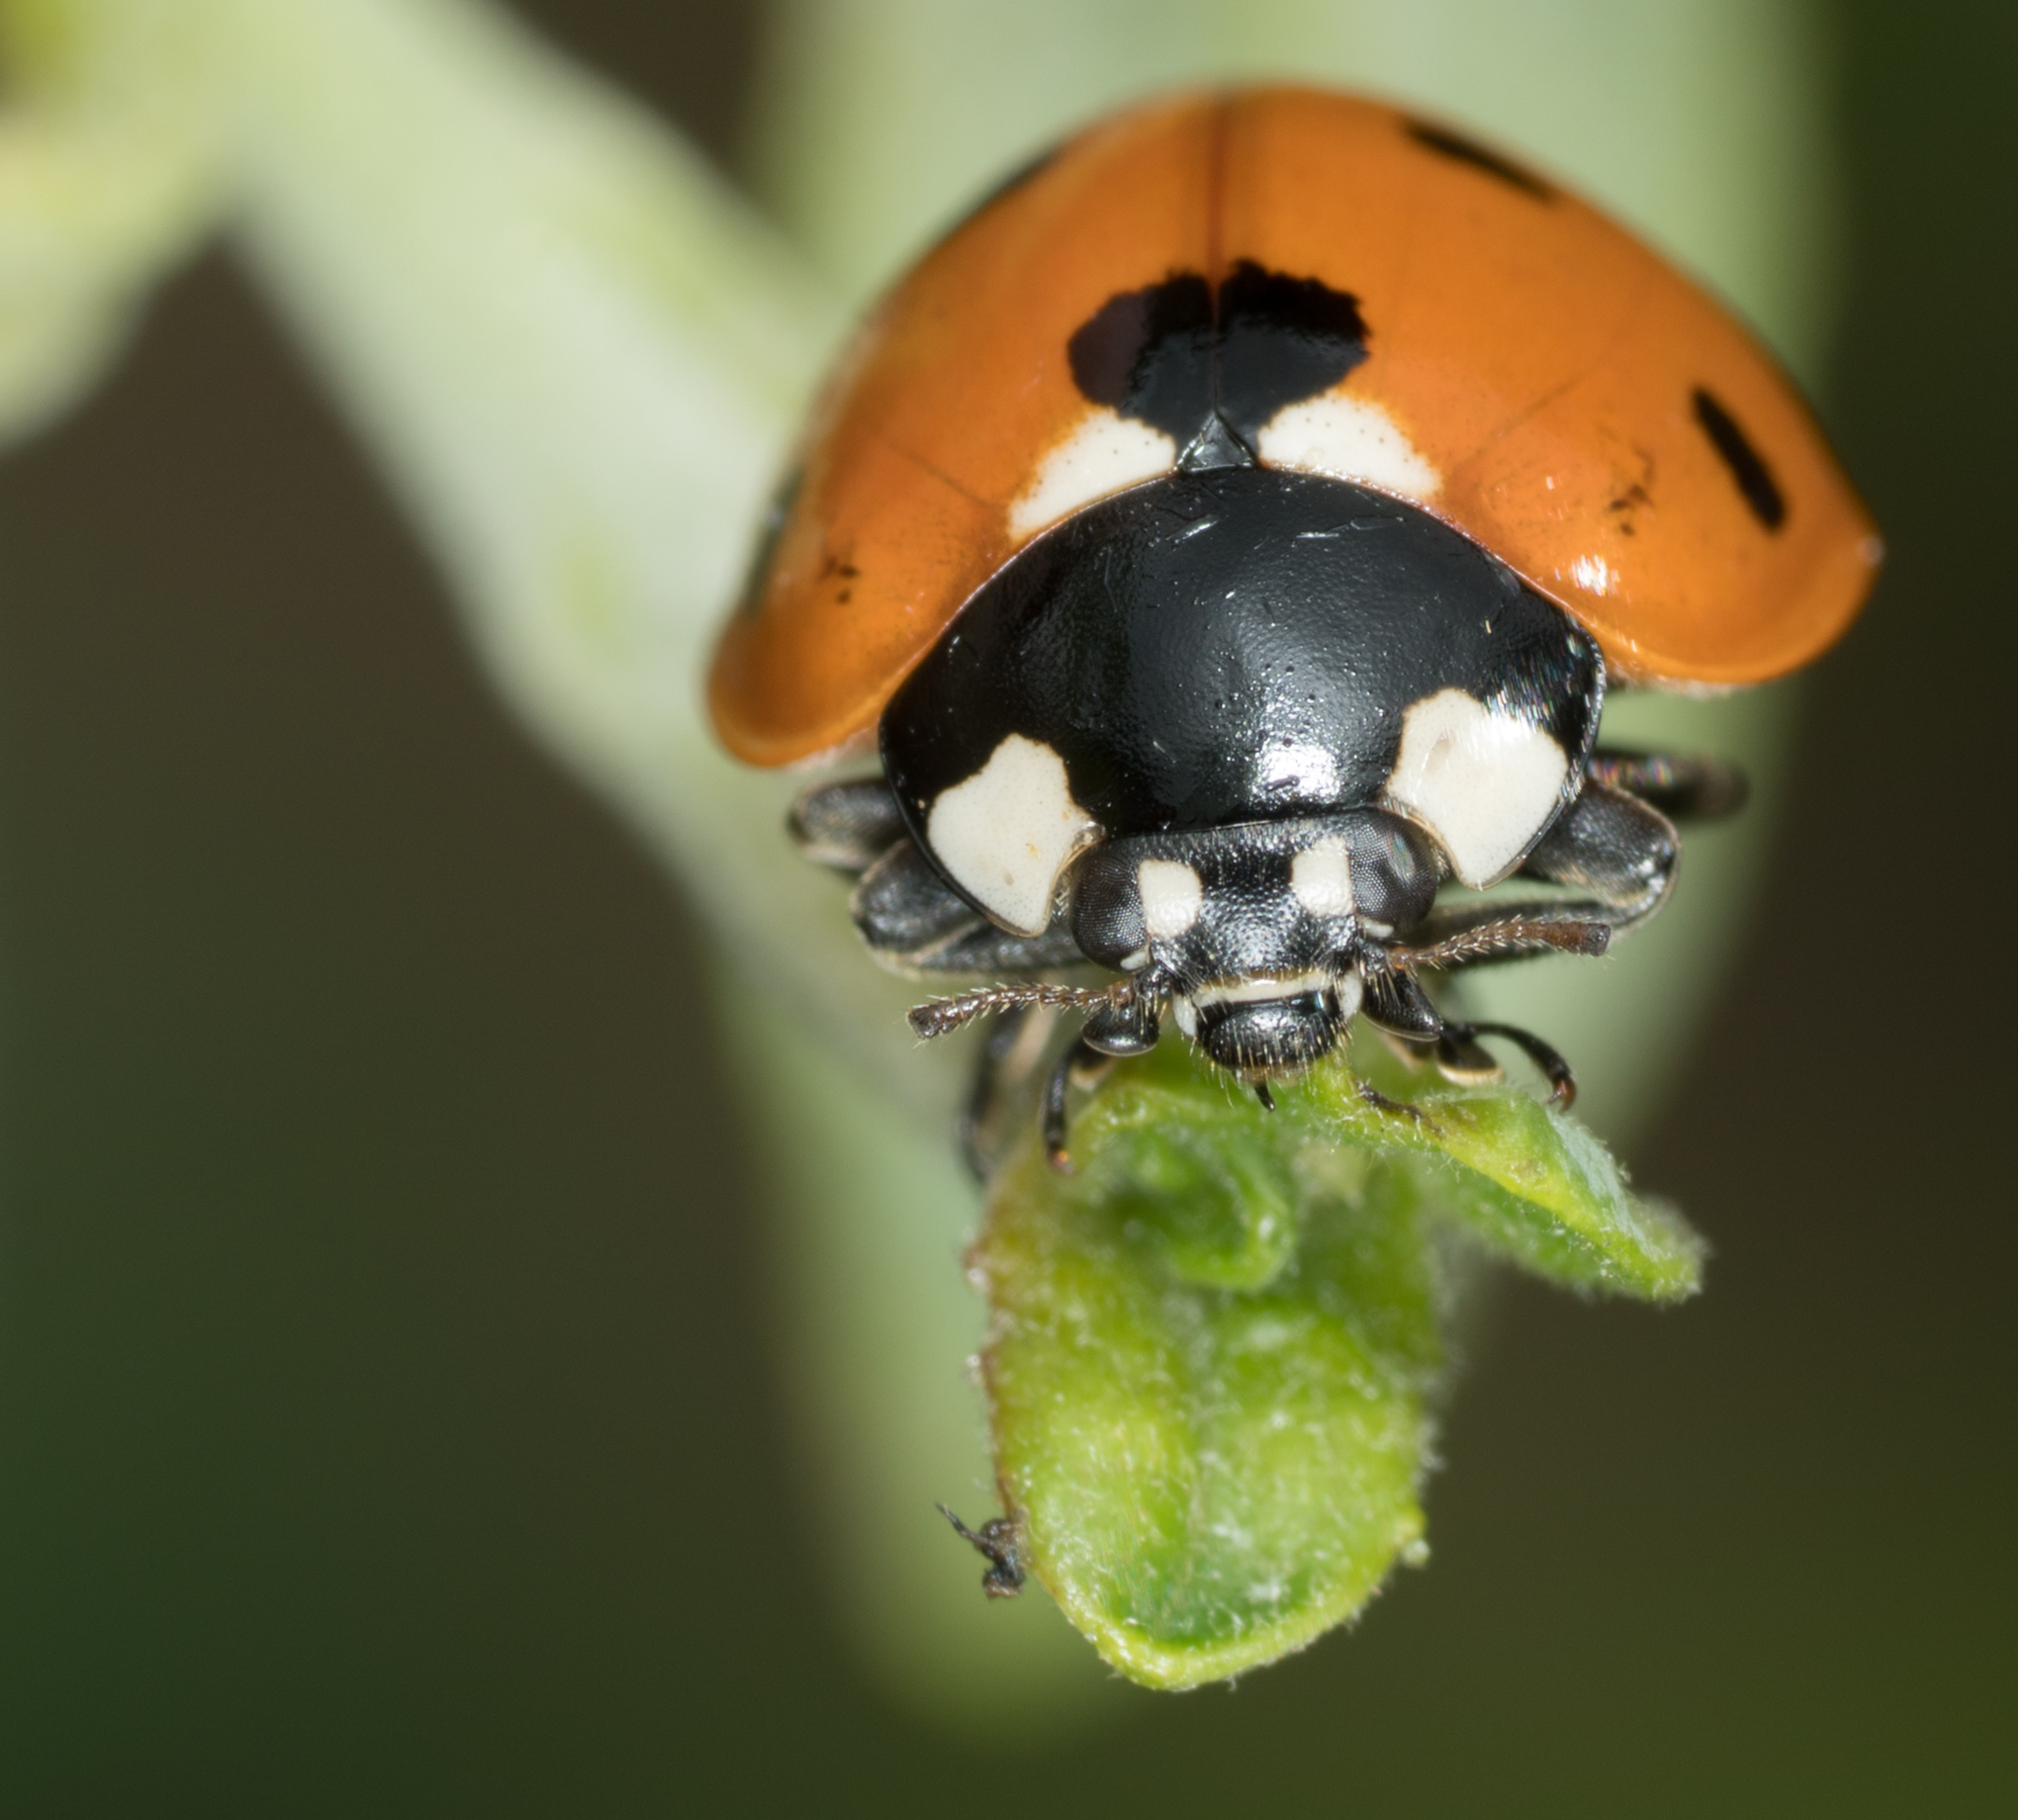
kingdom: Animalia
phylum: Arthropoda
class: Insecta
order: Coleoptera
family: Coccinellidae
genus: Coccinella
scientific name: Coccinella septempunctata
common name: Sevenspotted lady beetle
